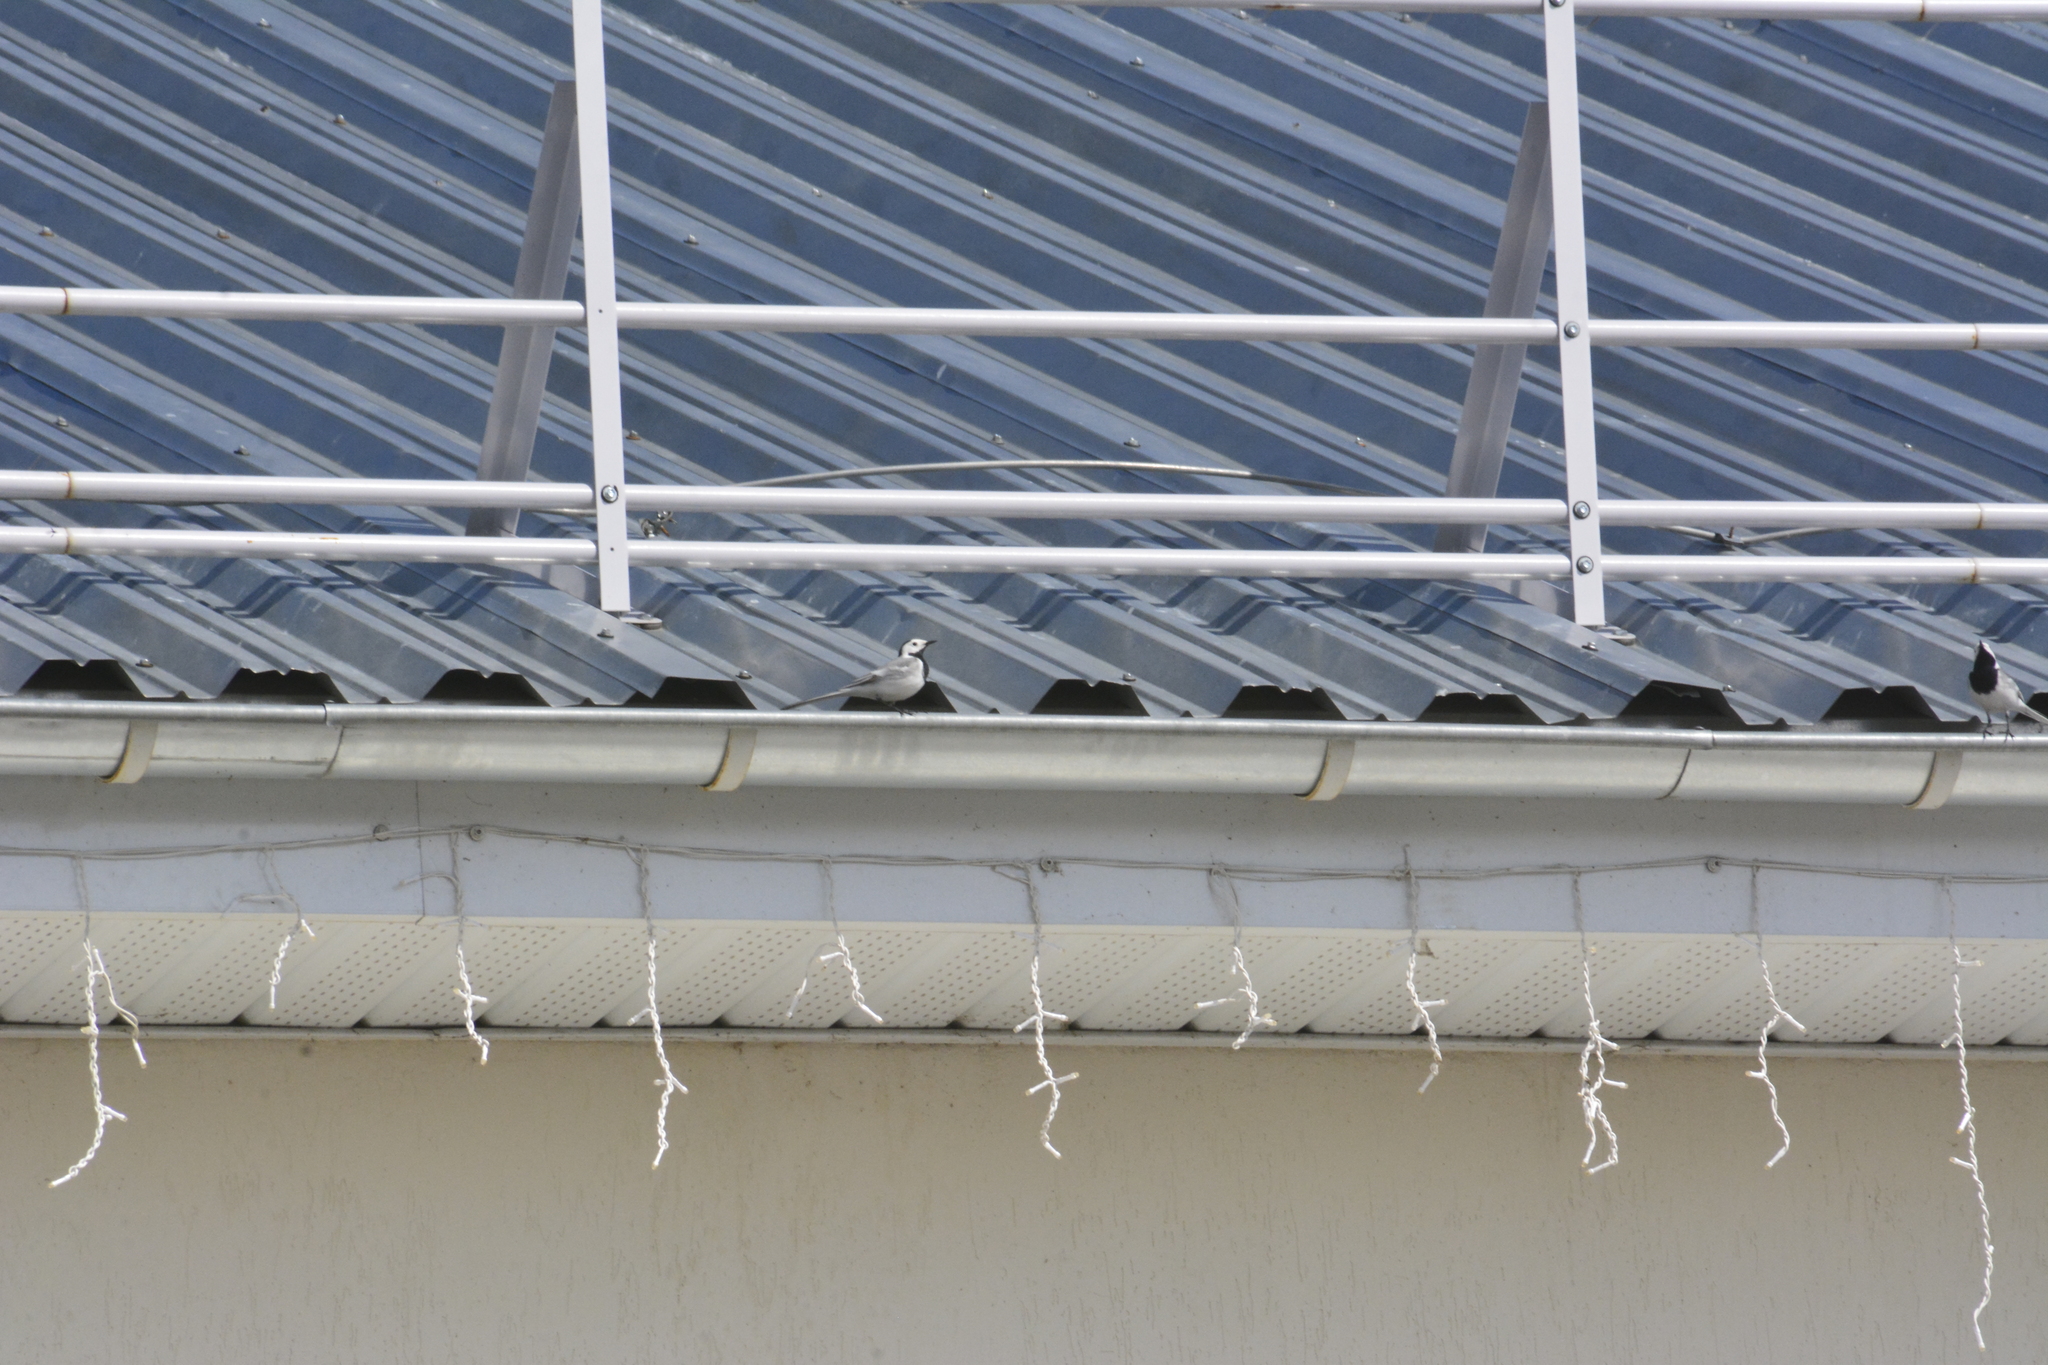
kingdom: Animalia
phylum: Chordata
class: Aves
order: Passeriformes
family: Motacillidae
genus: Motacilla
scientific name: Motacilla alba
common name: White wagtail
